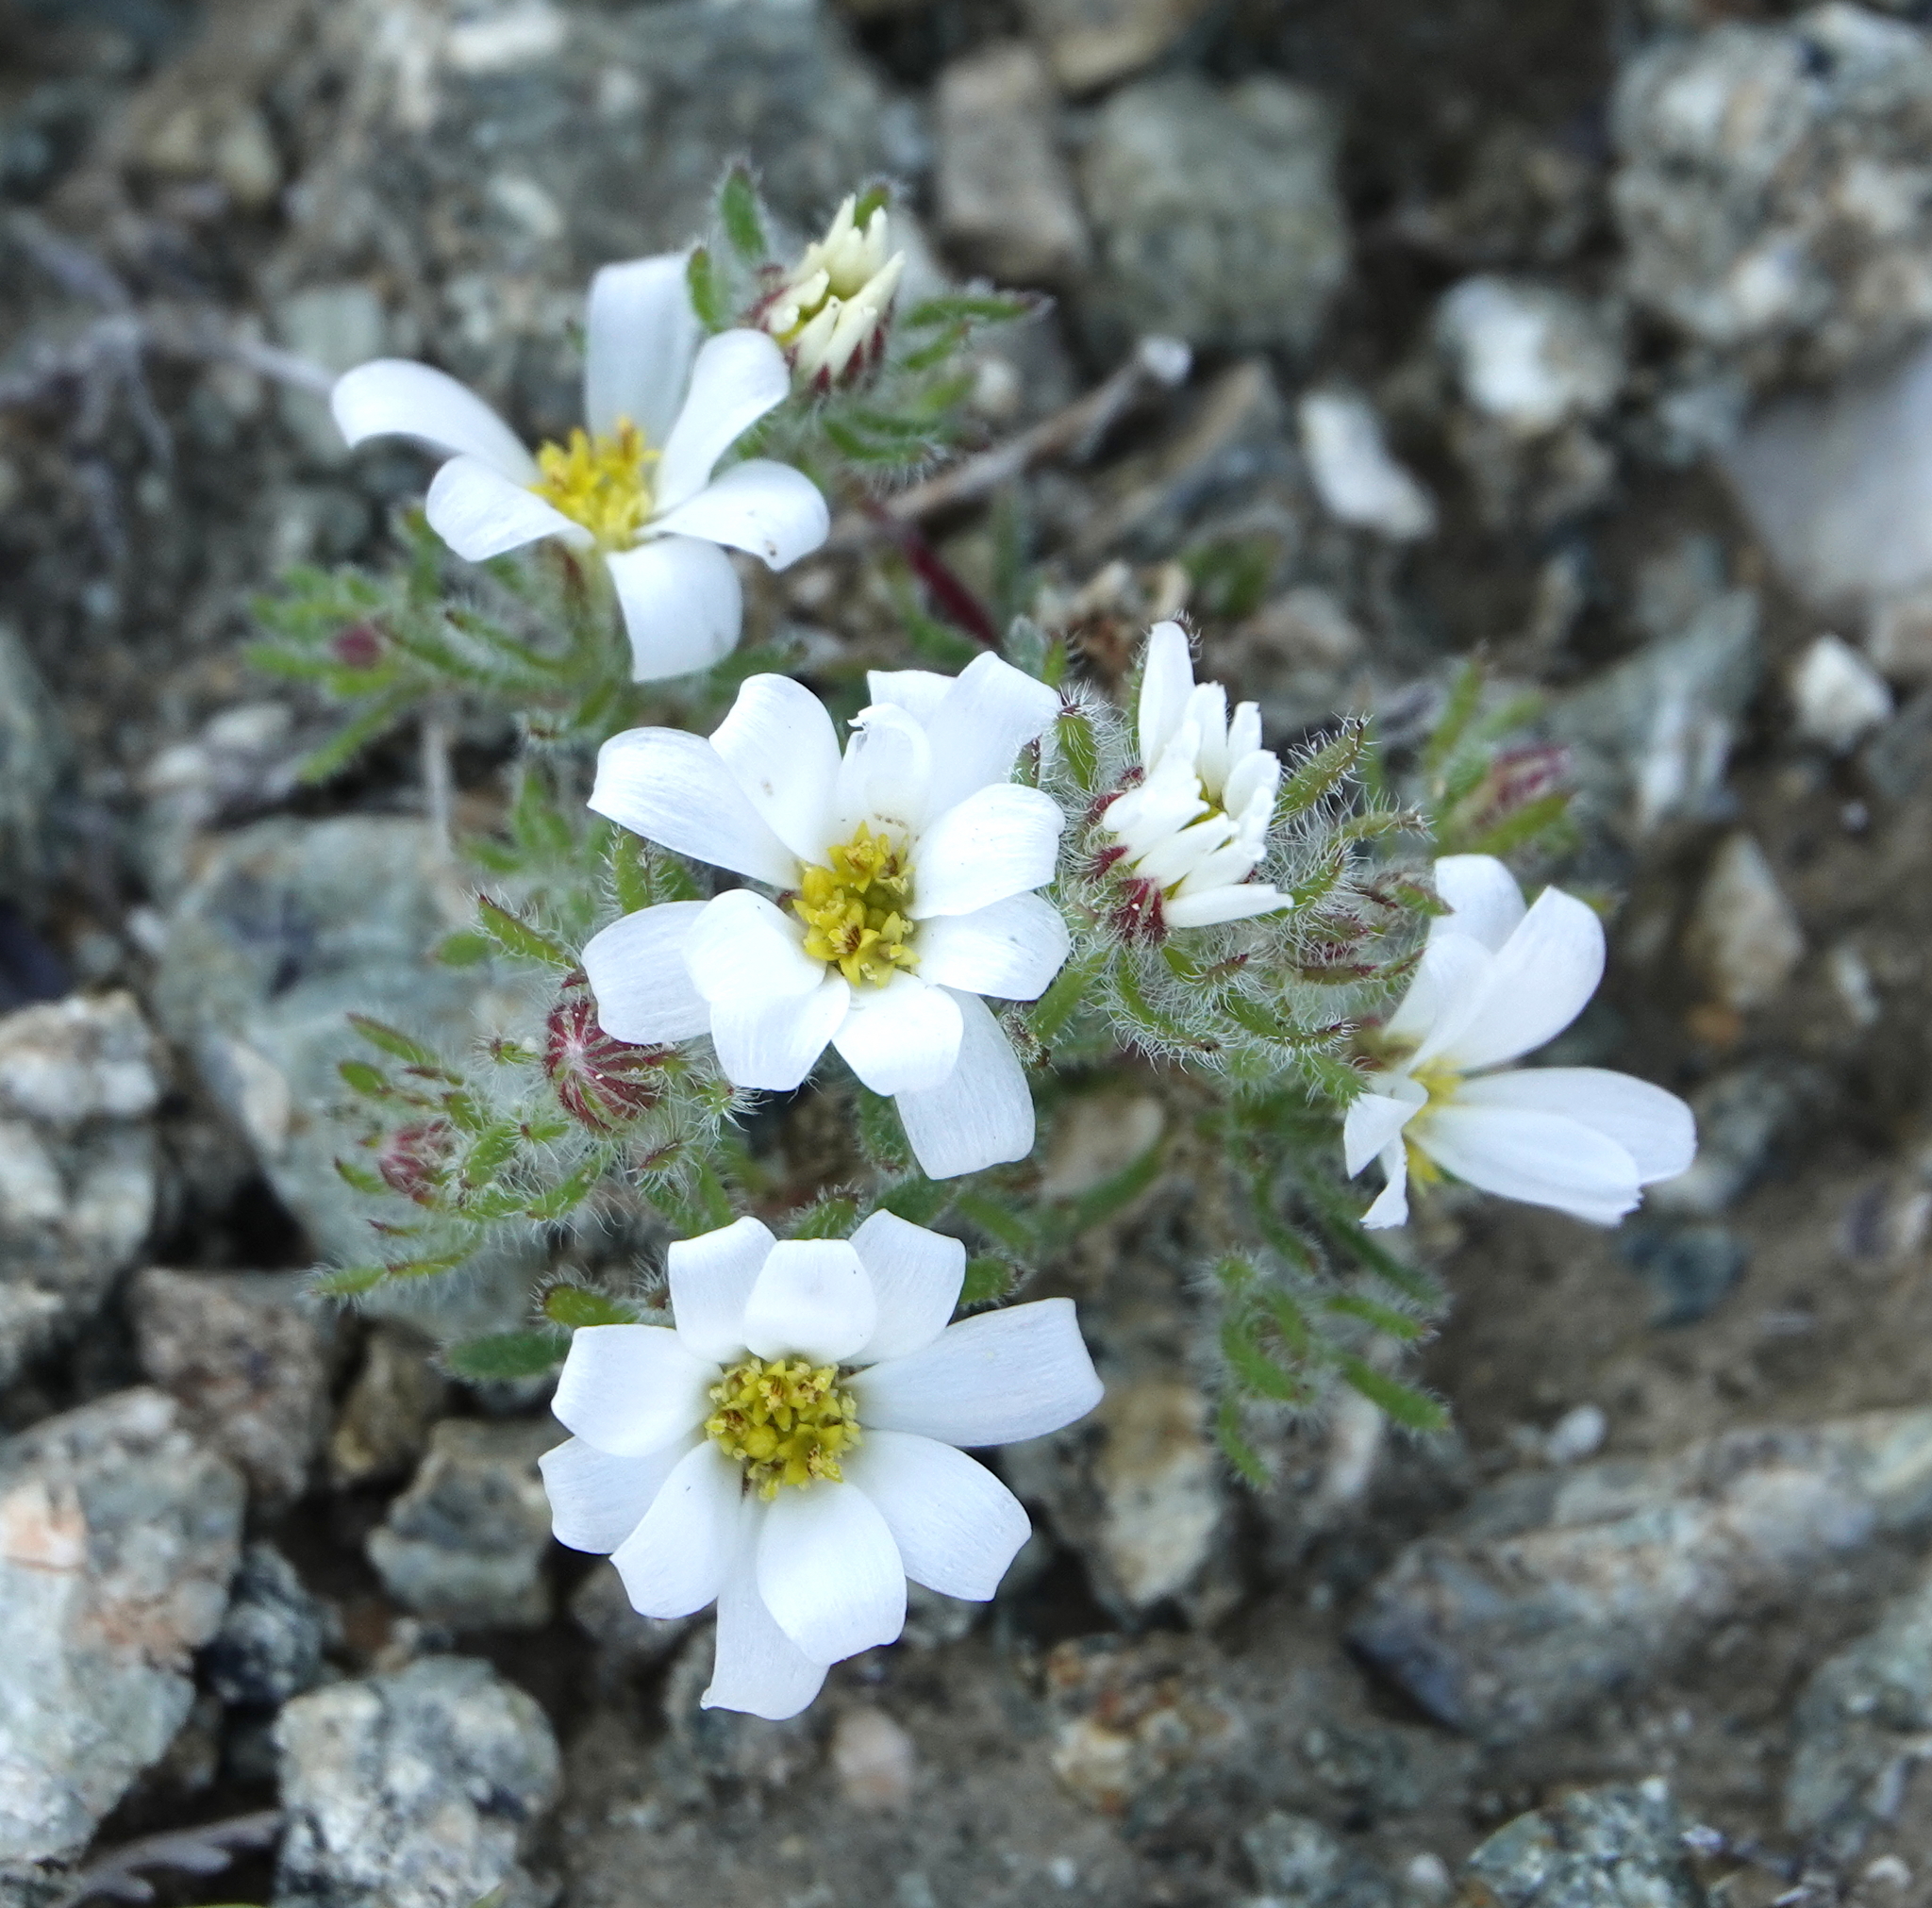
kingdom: Plantae
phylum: Tracheophyta
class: Magnoliopsida
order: Asterales
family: Asteraceae
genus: Monoptilon
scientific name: Monoptilon bellioides
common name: Bristly desertstar
